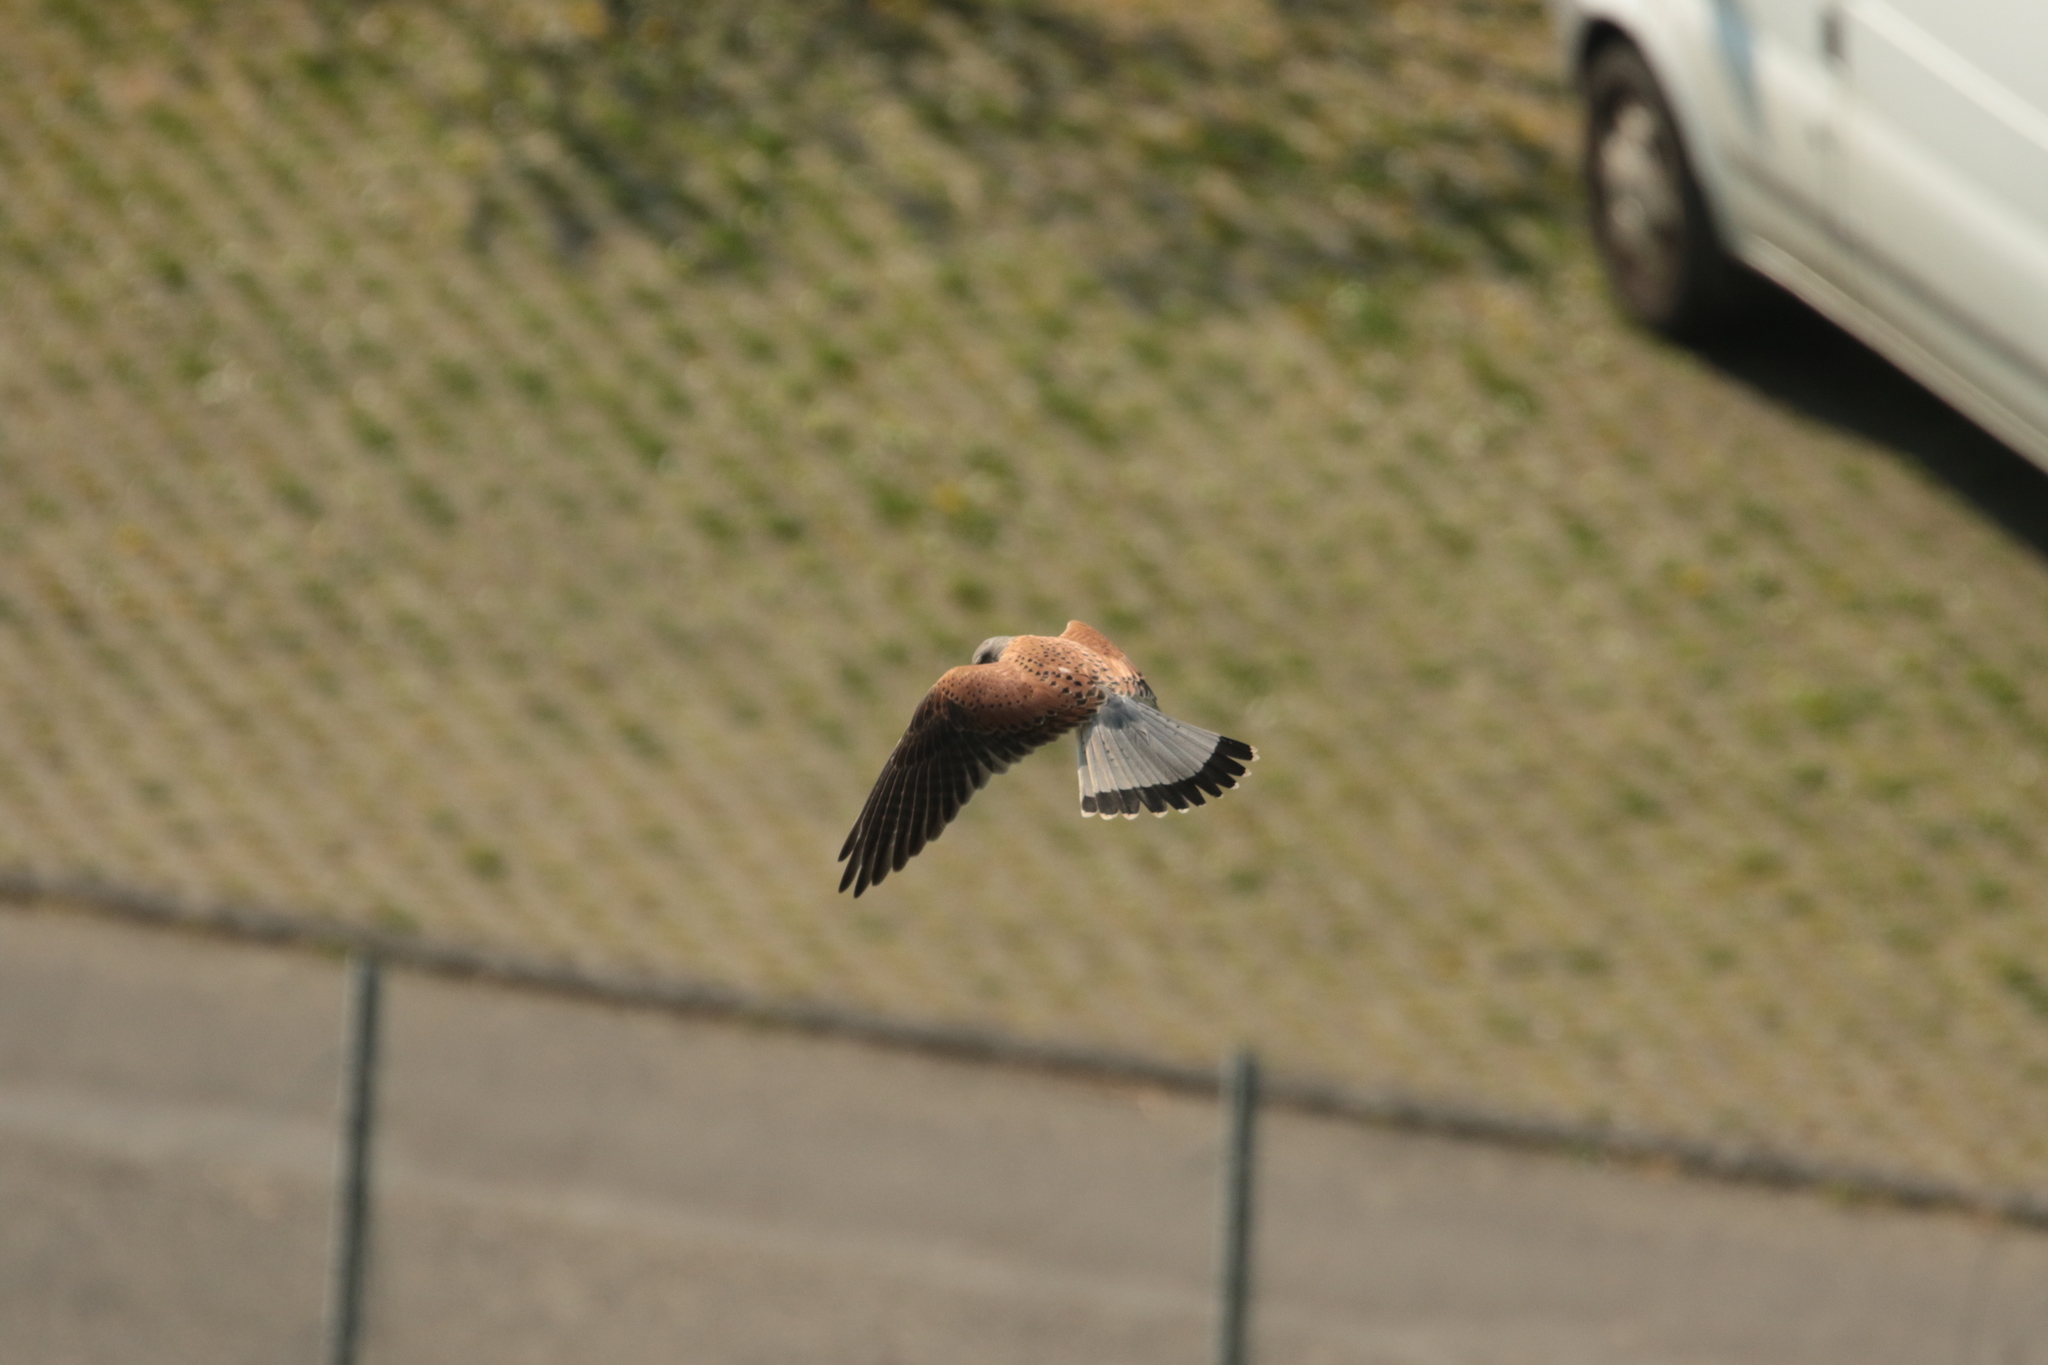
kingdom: Animalia
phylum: Chordata
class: Aves
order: Falconiformes
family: Falconidae
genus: Falco
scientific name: Falco tinnunculus
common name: Common kestrel
